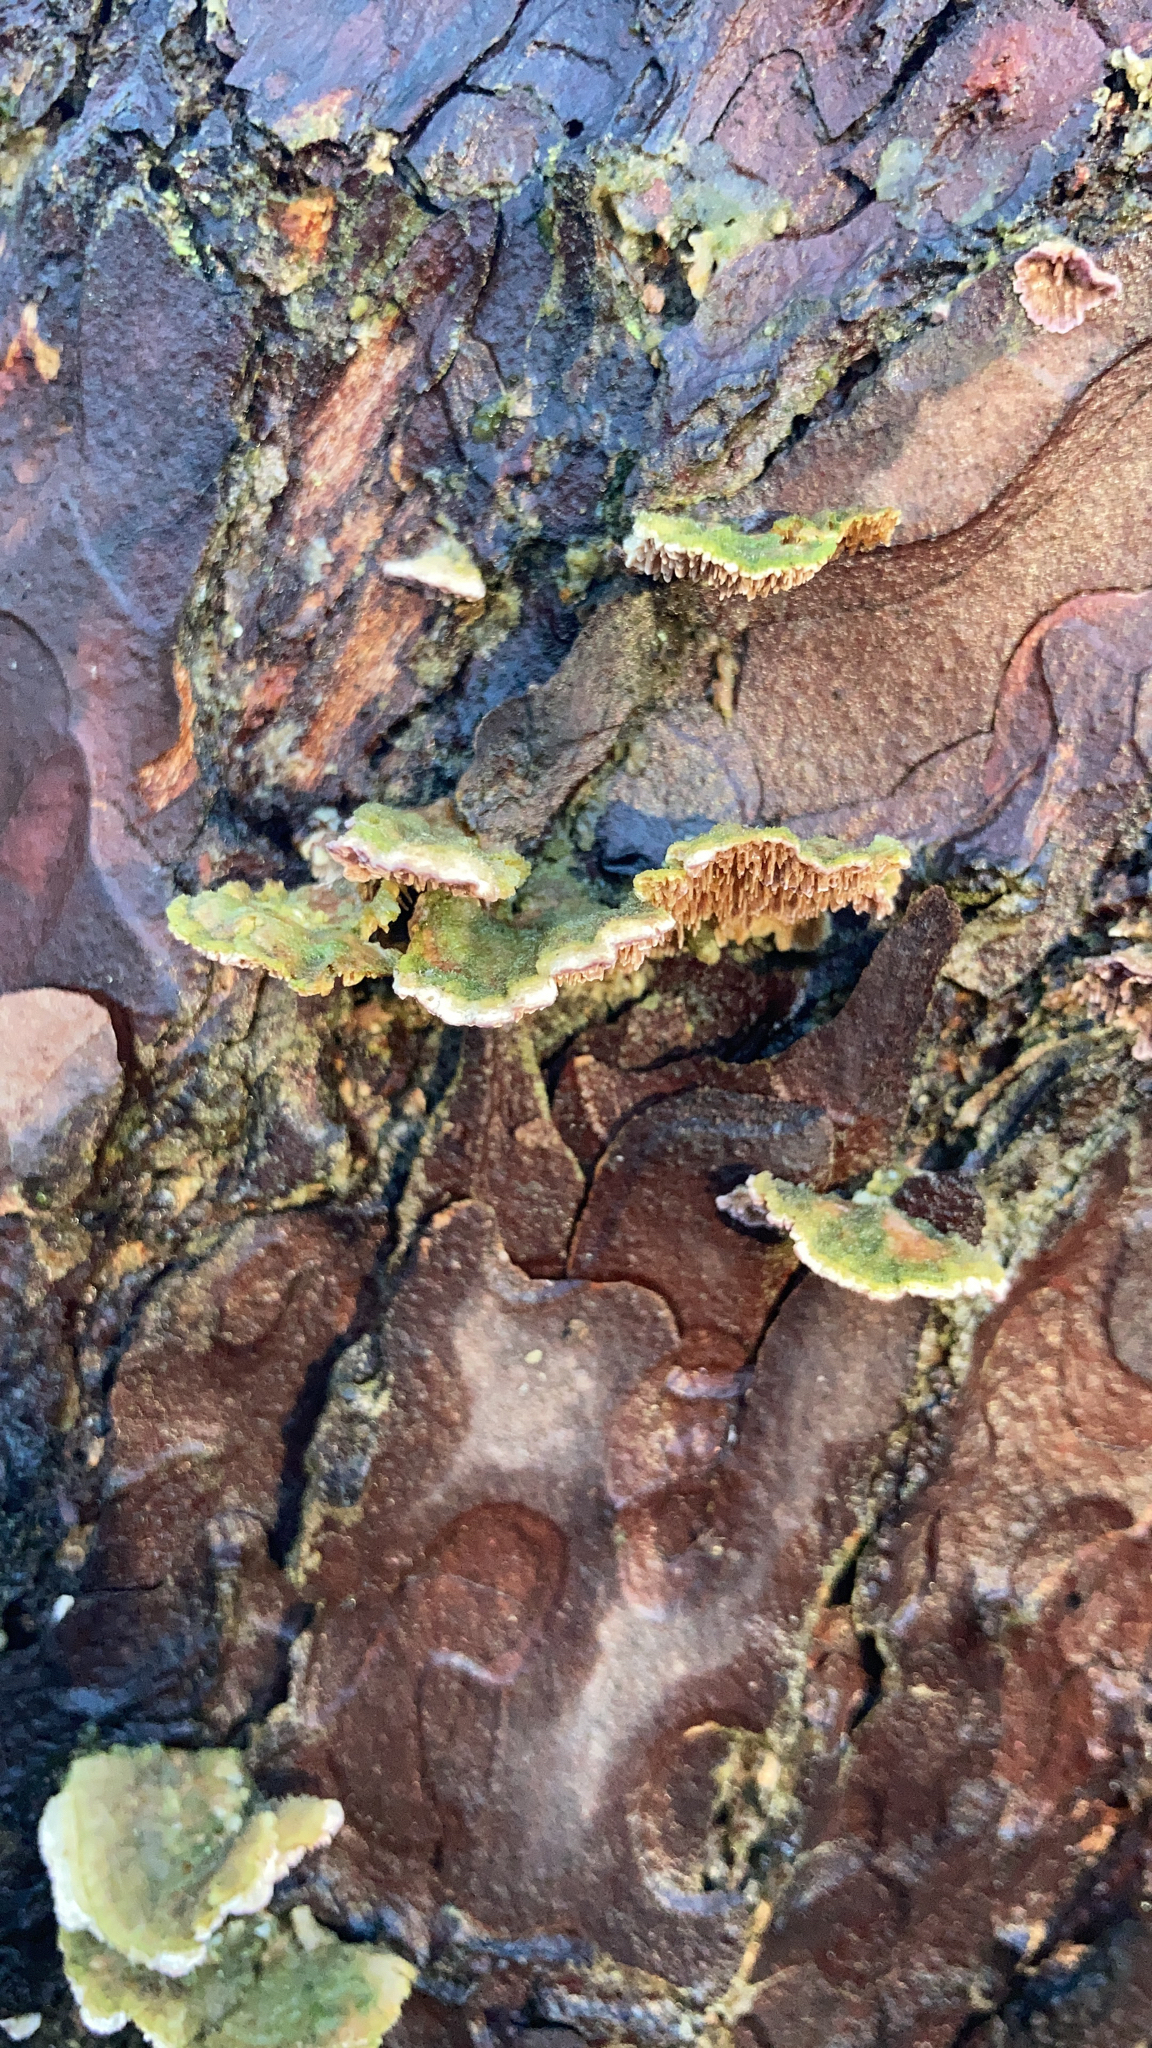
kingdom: Fungi
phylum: Basidiomycota
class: Agaricomycetes
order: Hymenochaetales
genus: Trichaptum
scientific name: Trichaptum fuscoviolaceum
